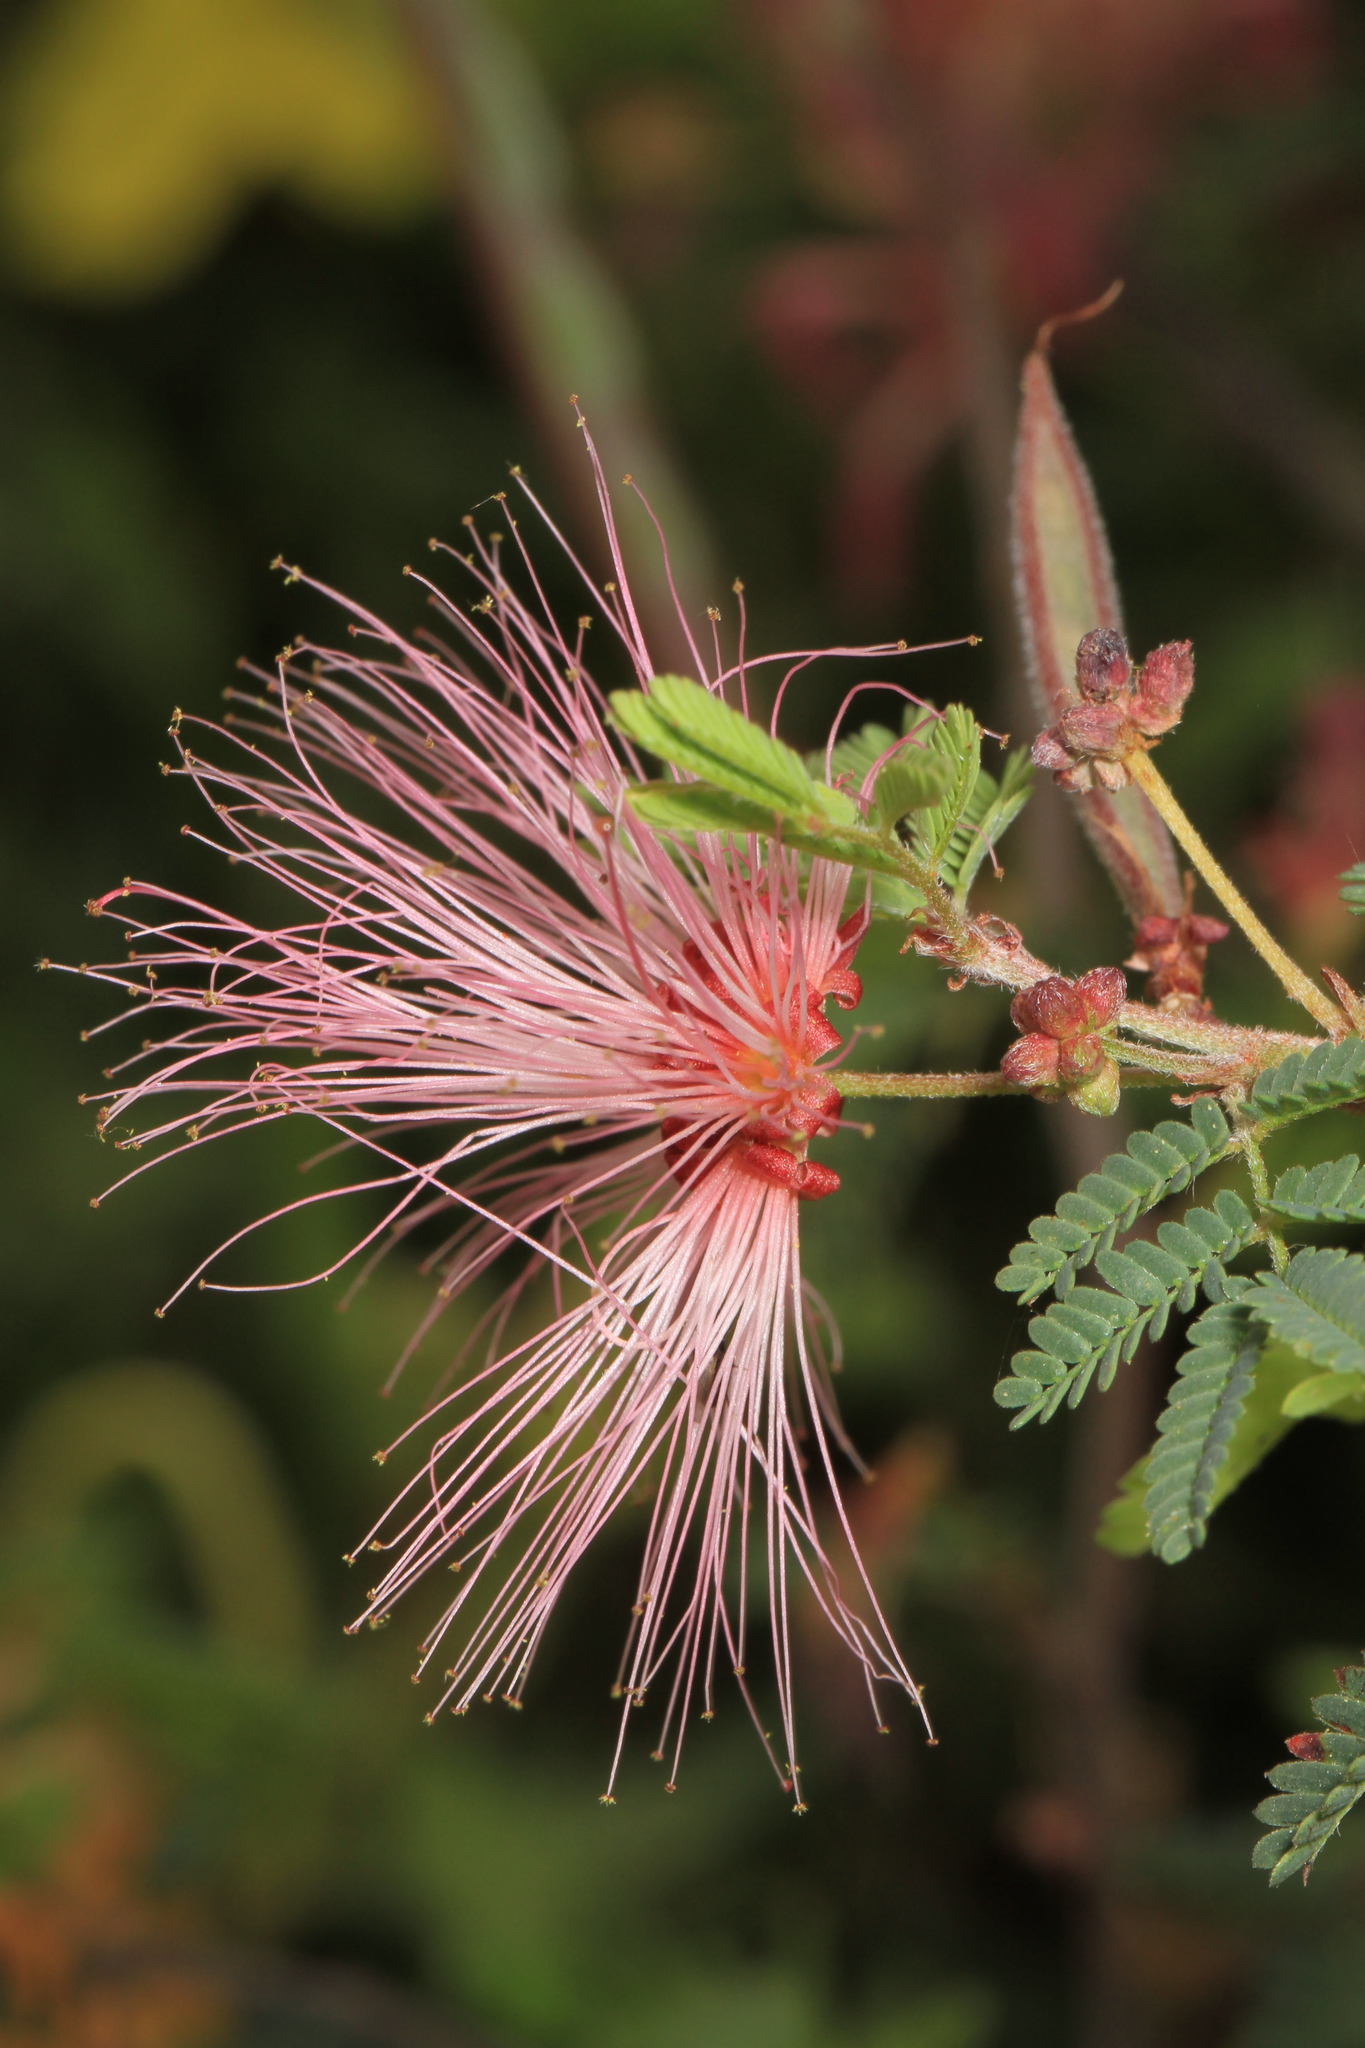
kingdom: Plantae
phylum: Tracheophyta
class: Magnoliopsida
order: Fabales
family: Fabaceae
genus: Calliandra
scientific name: Calliandra eriophylla
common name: Fairy-duster
